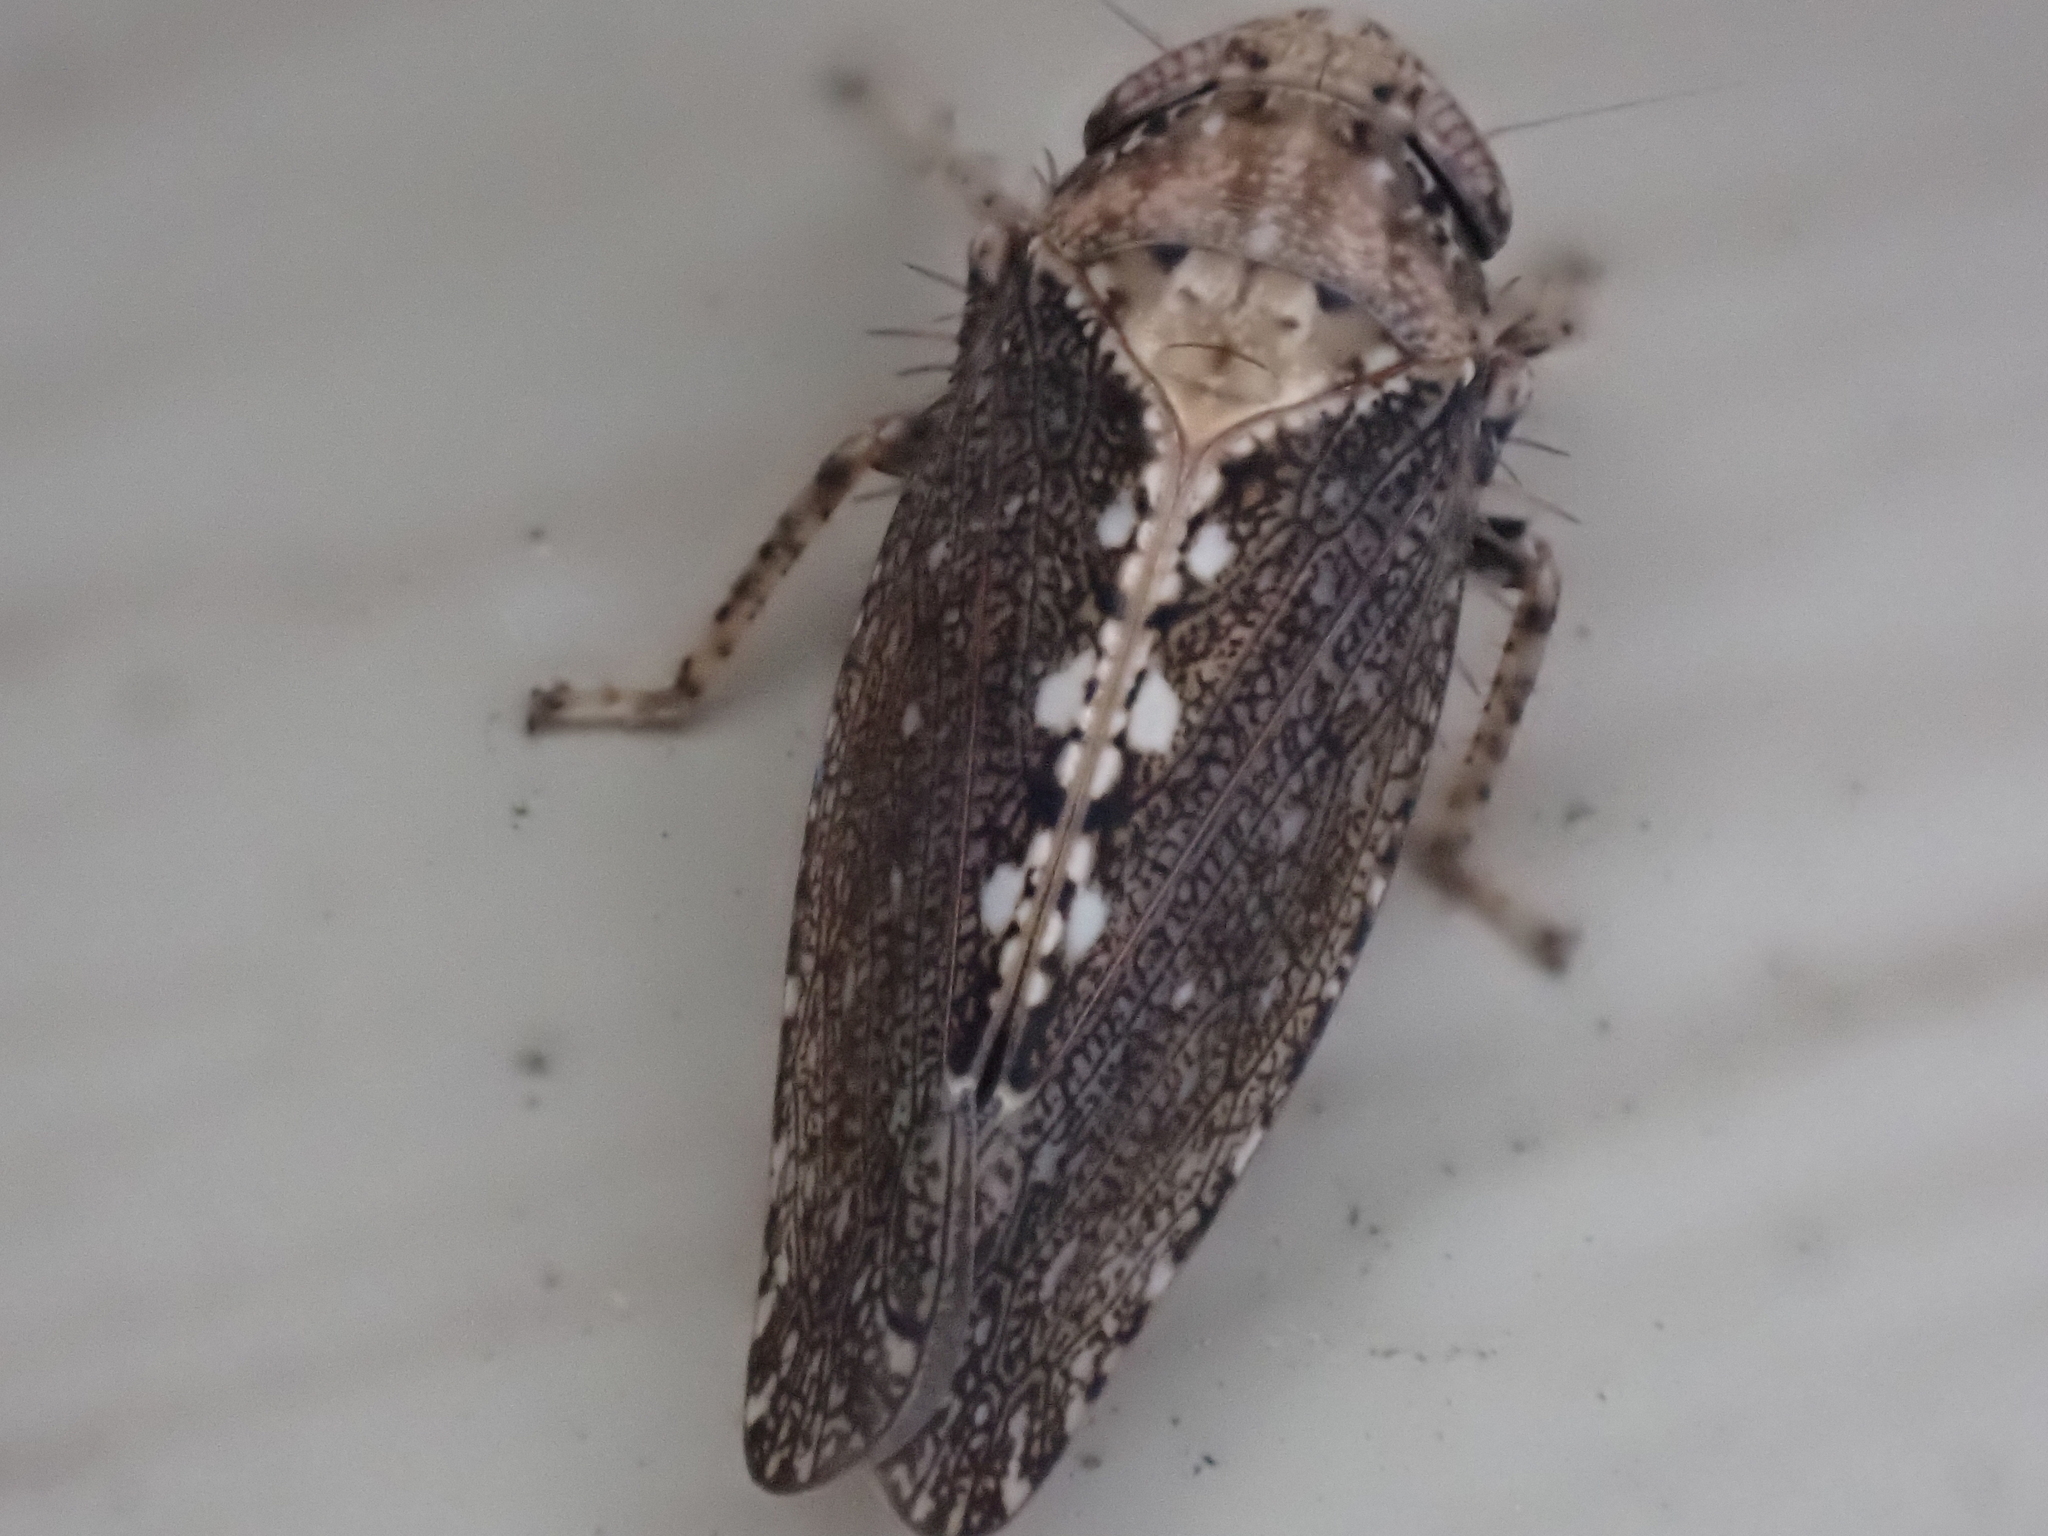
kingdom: Animalia
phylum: Arthropoda
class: Insecta
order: Hemiptera
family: Cicadellidae
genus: Excultanus
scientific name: Excultanus excultus
